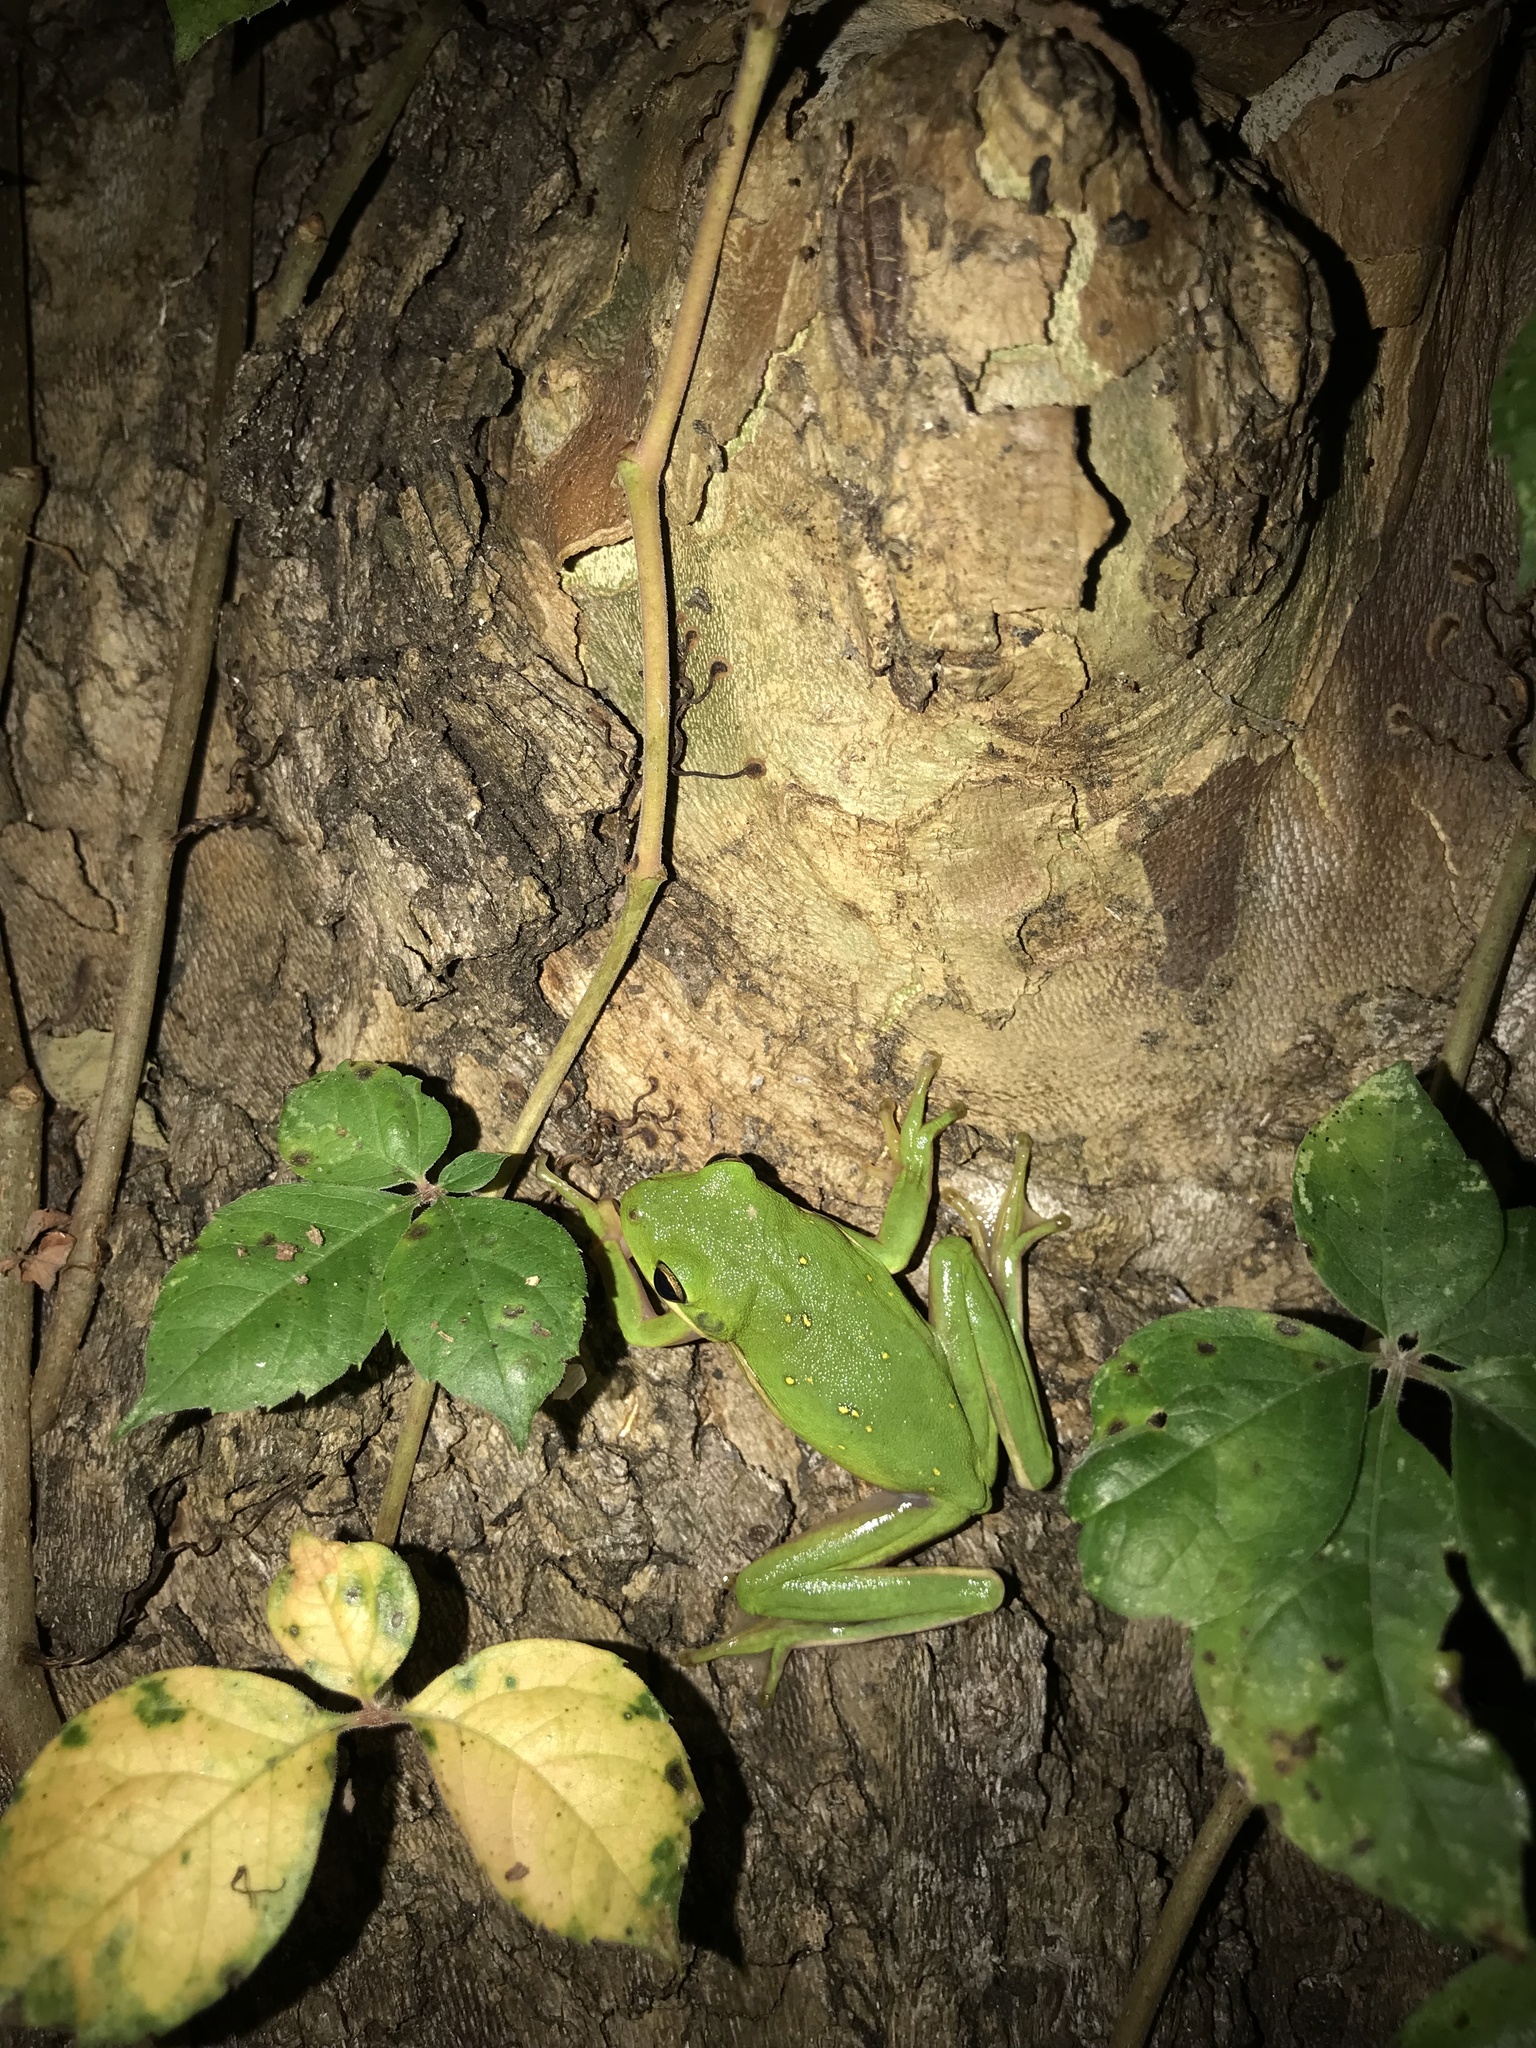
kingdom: Animalia
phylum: Chordata
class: Amphibia
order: Anura
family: Hylidae
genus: Dryophytes
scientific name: Dryophytes cinereus
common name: Green treefrog
